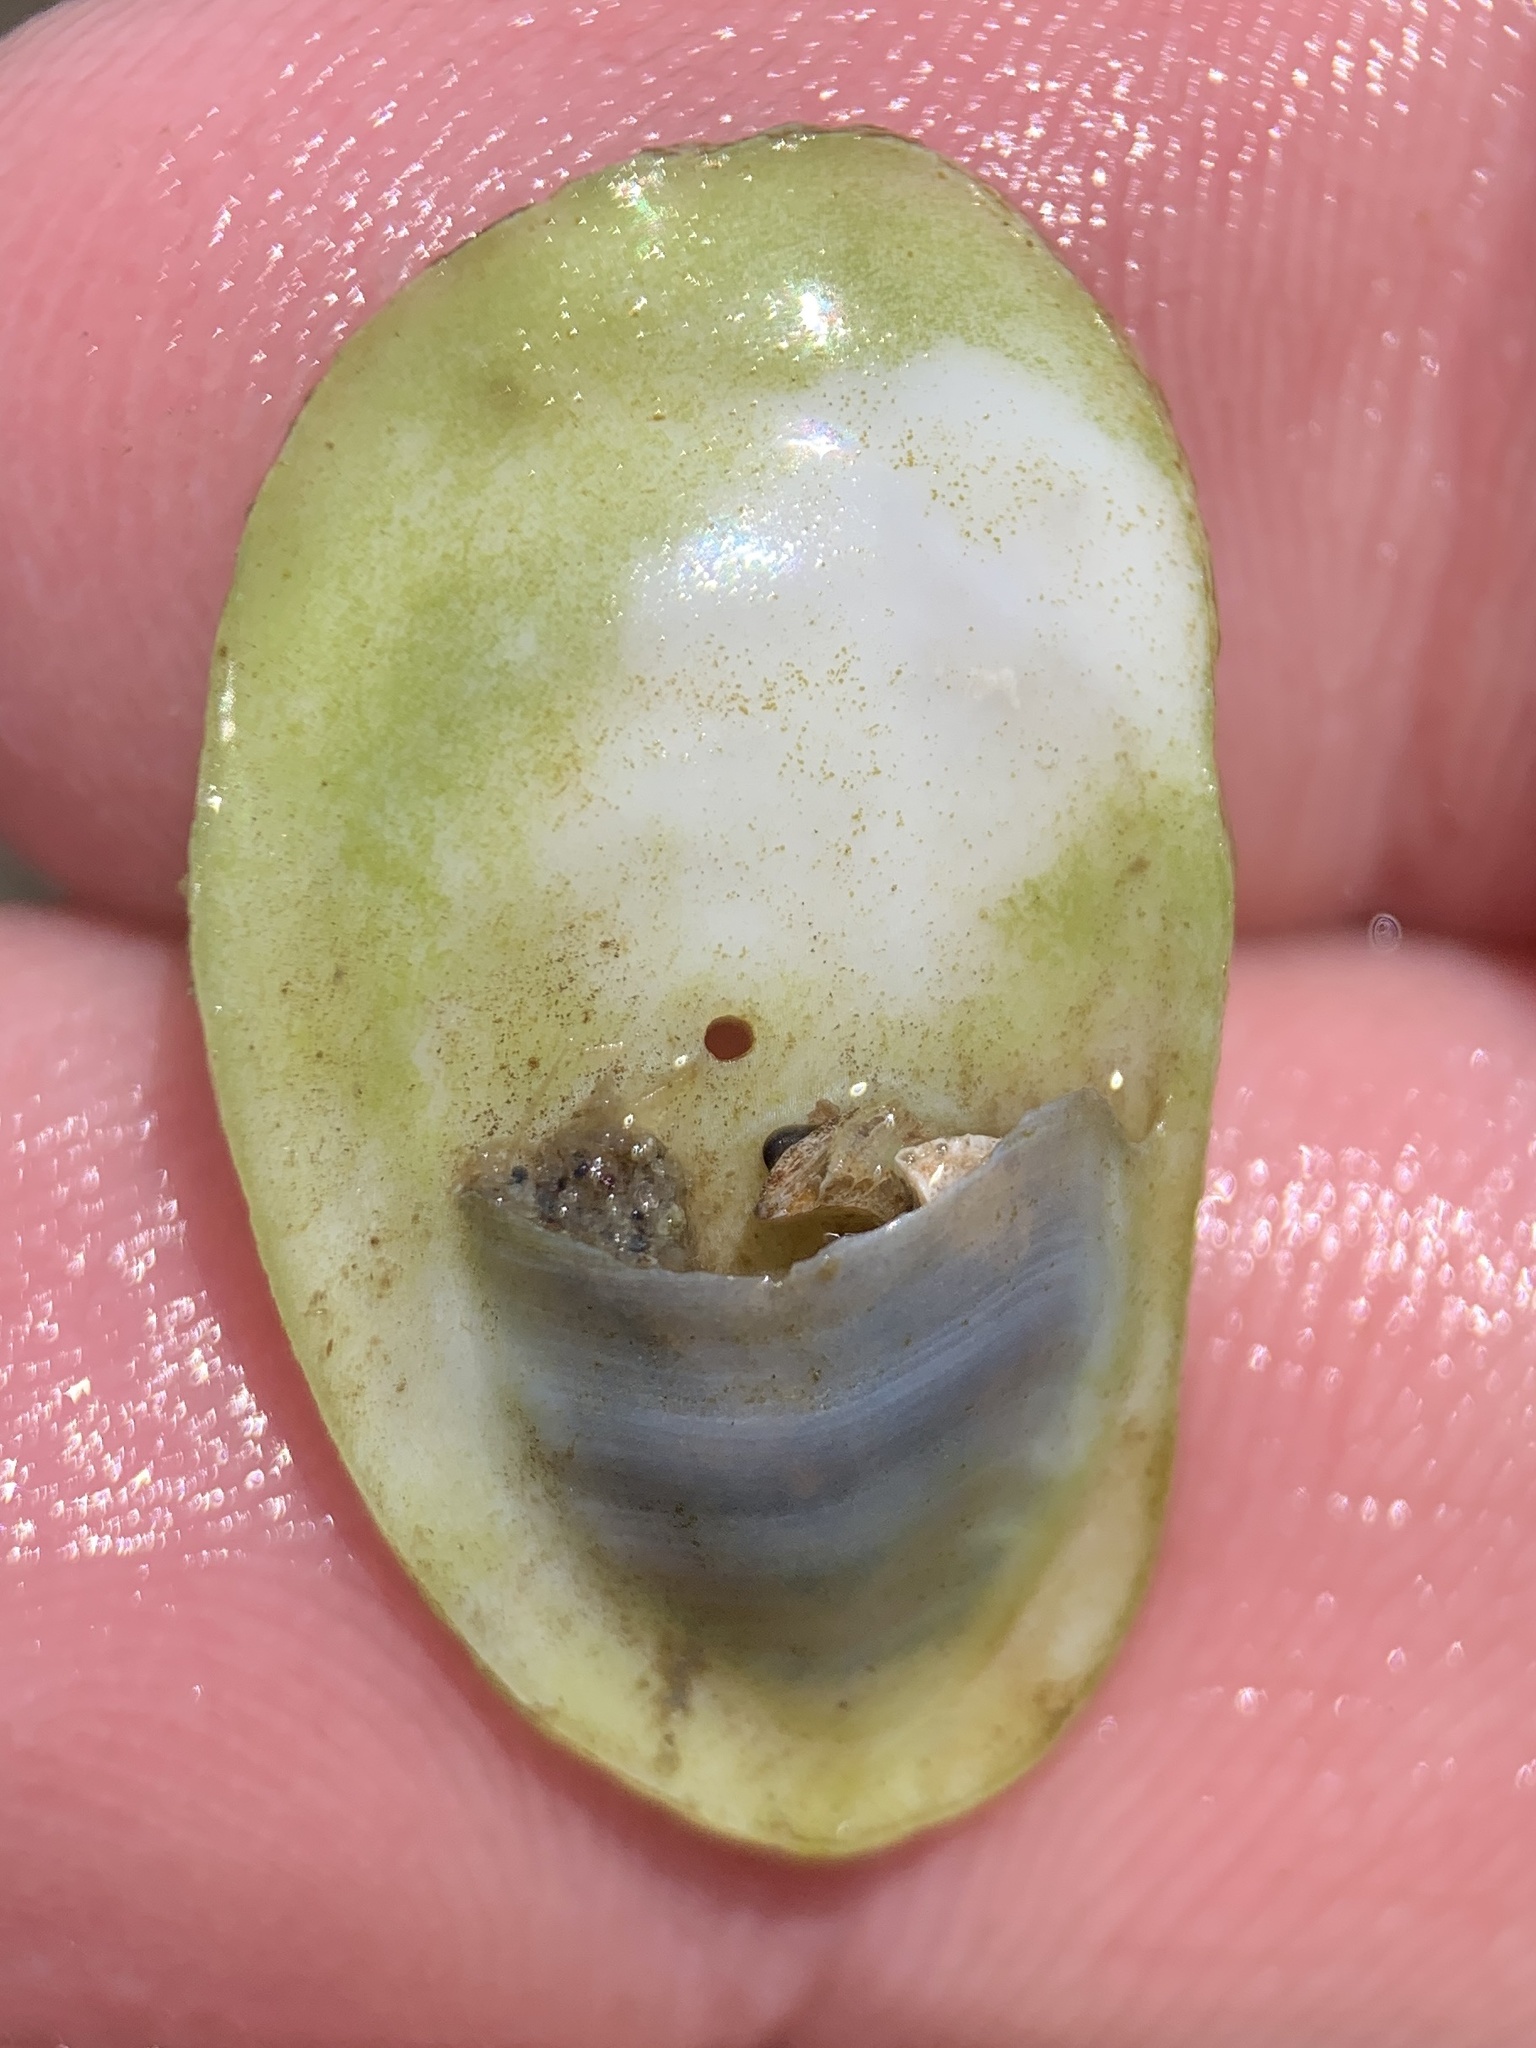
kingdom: Animalia
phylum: Mollusca
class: Gastropoda
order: Littorinimorpha
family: Calyptraeidae
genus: Crepidula
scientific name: Crepidula plana
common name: Eastern white slippersnail
